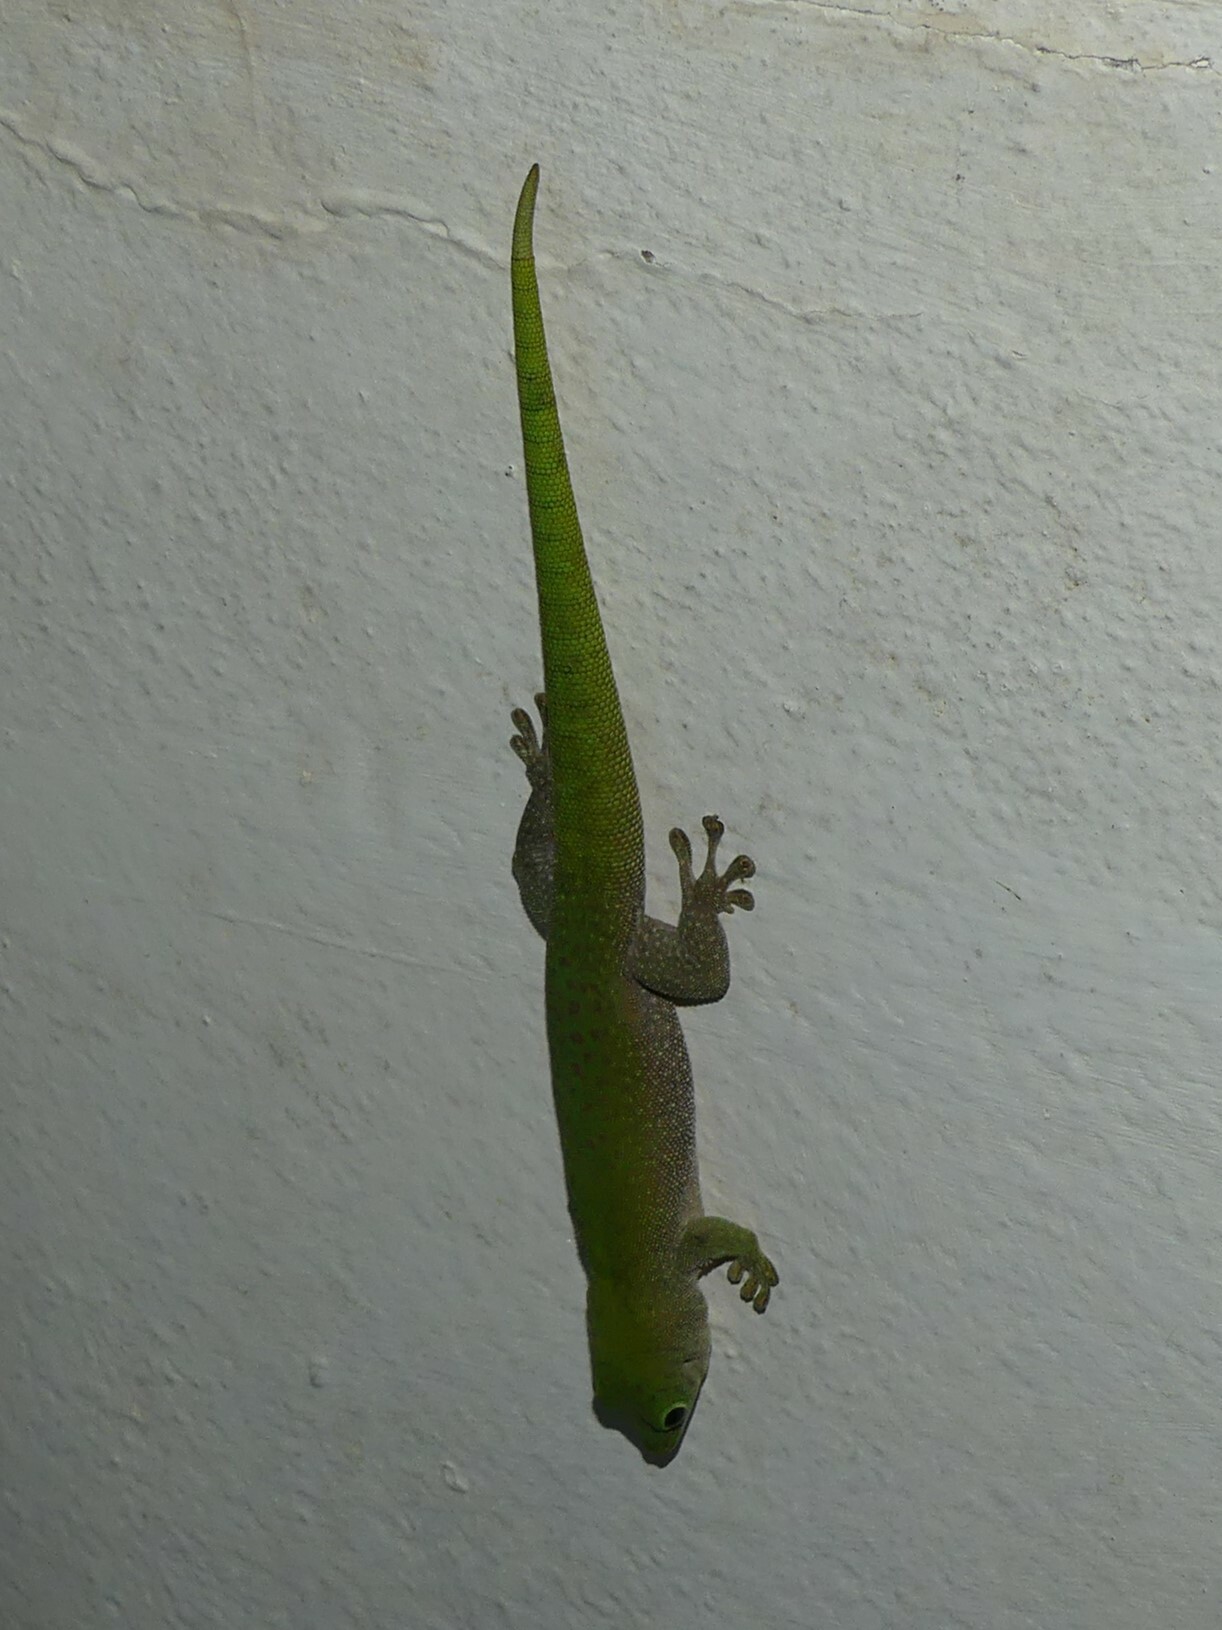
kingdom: Animalia
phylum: Chordata
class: Squamata
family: Gekkonidae
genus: Phelsuma
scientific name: Phelsuma kochi
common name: Madagascar day gecko
